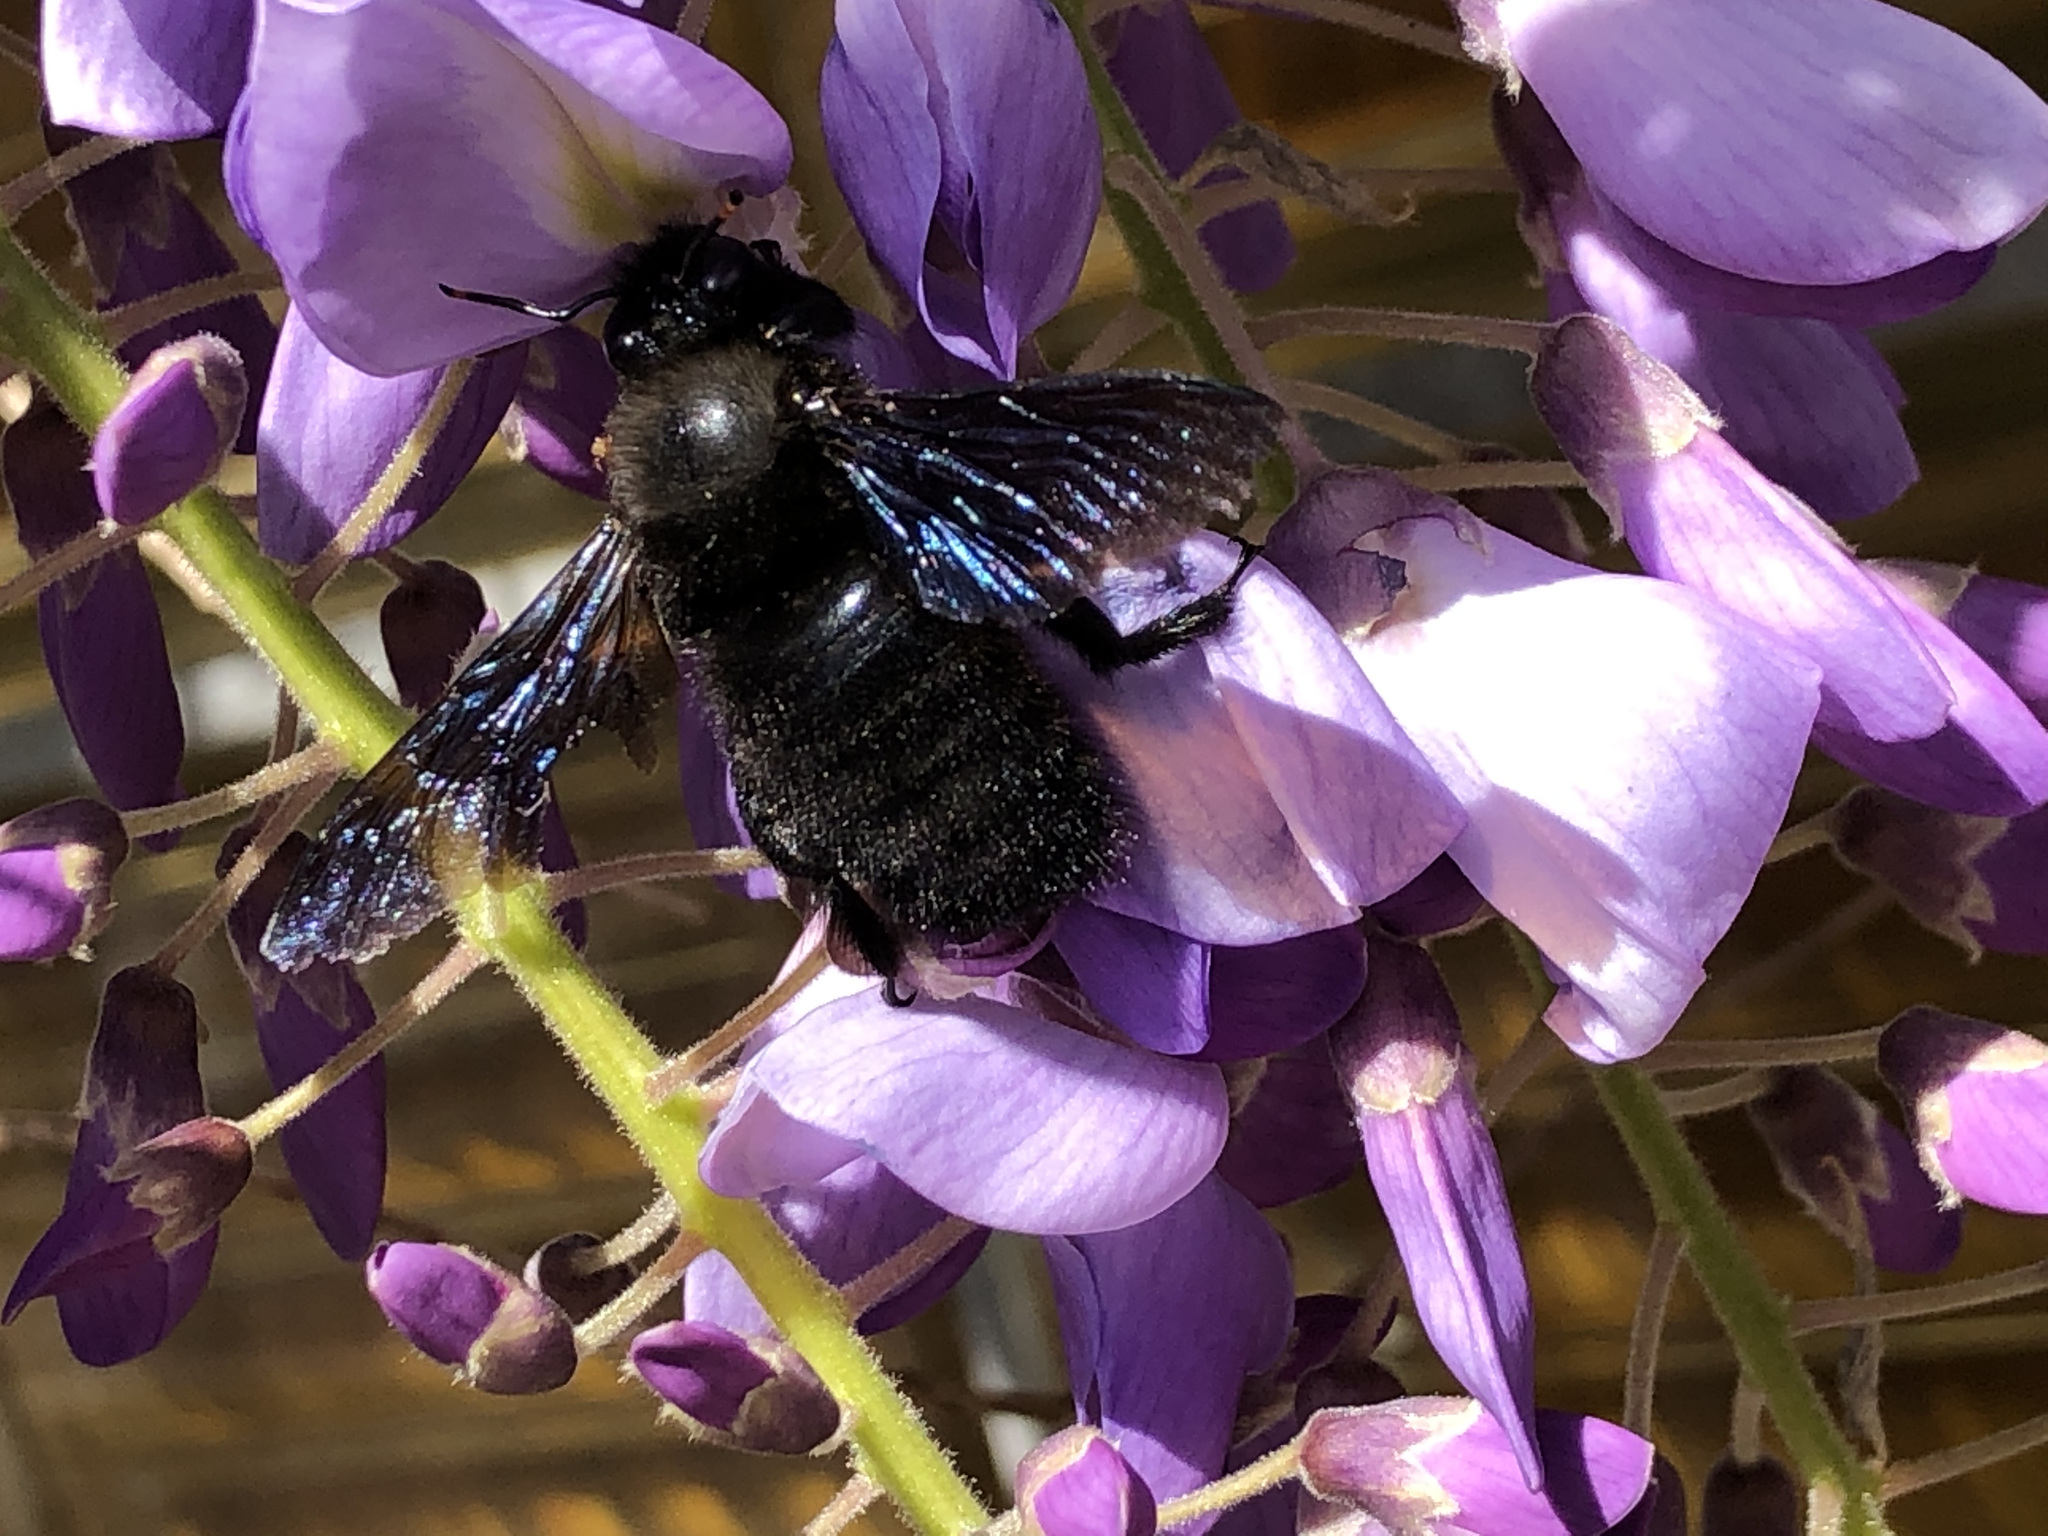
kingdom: Animalia
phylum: Arthropoda
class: Insecta
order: Hymenoptera
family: Apidae
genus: Xylocopa
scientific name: Xylocopa violacea
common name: Violet carpenter bee
